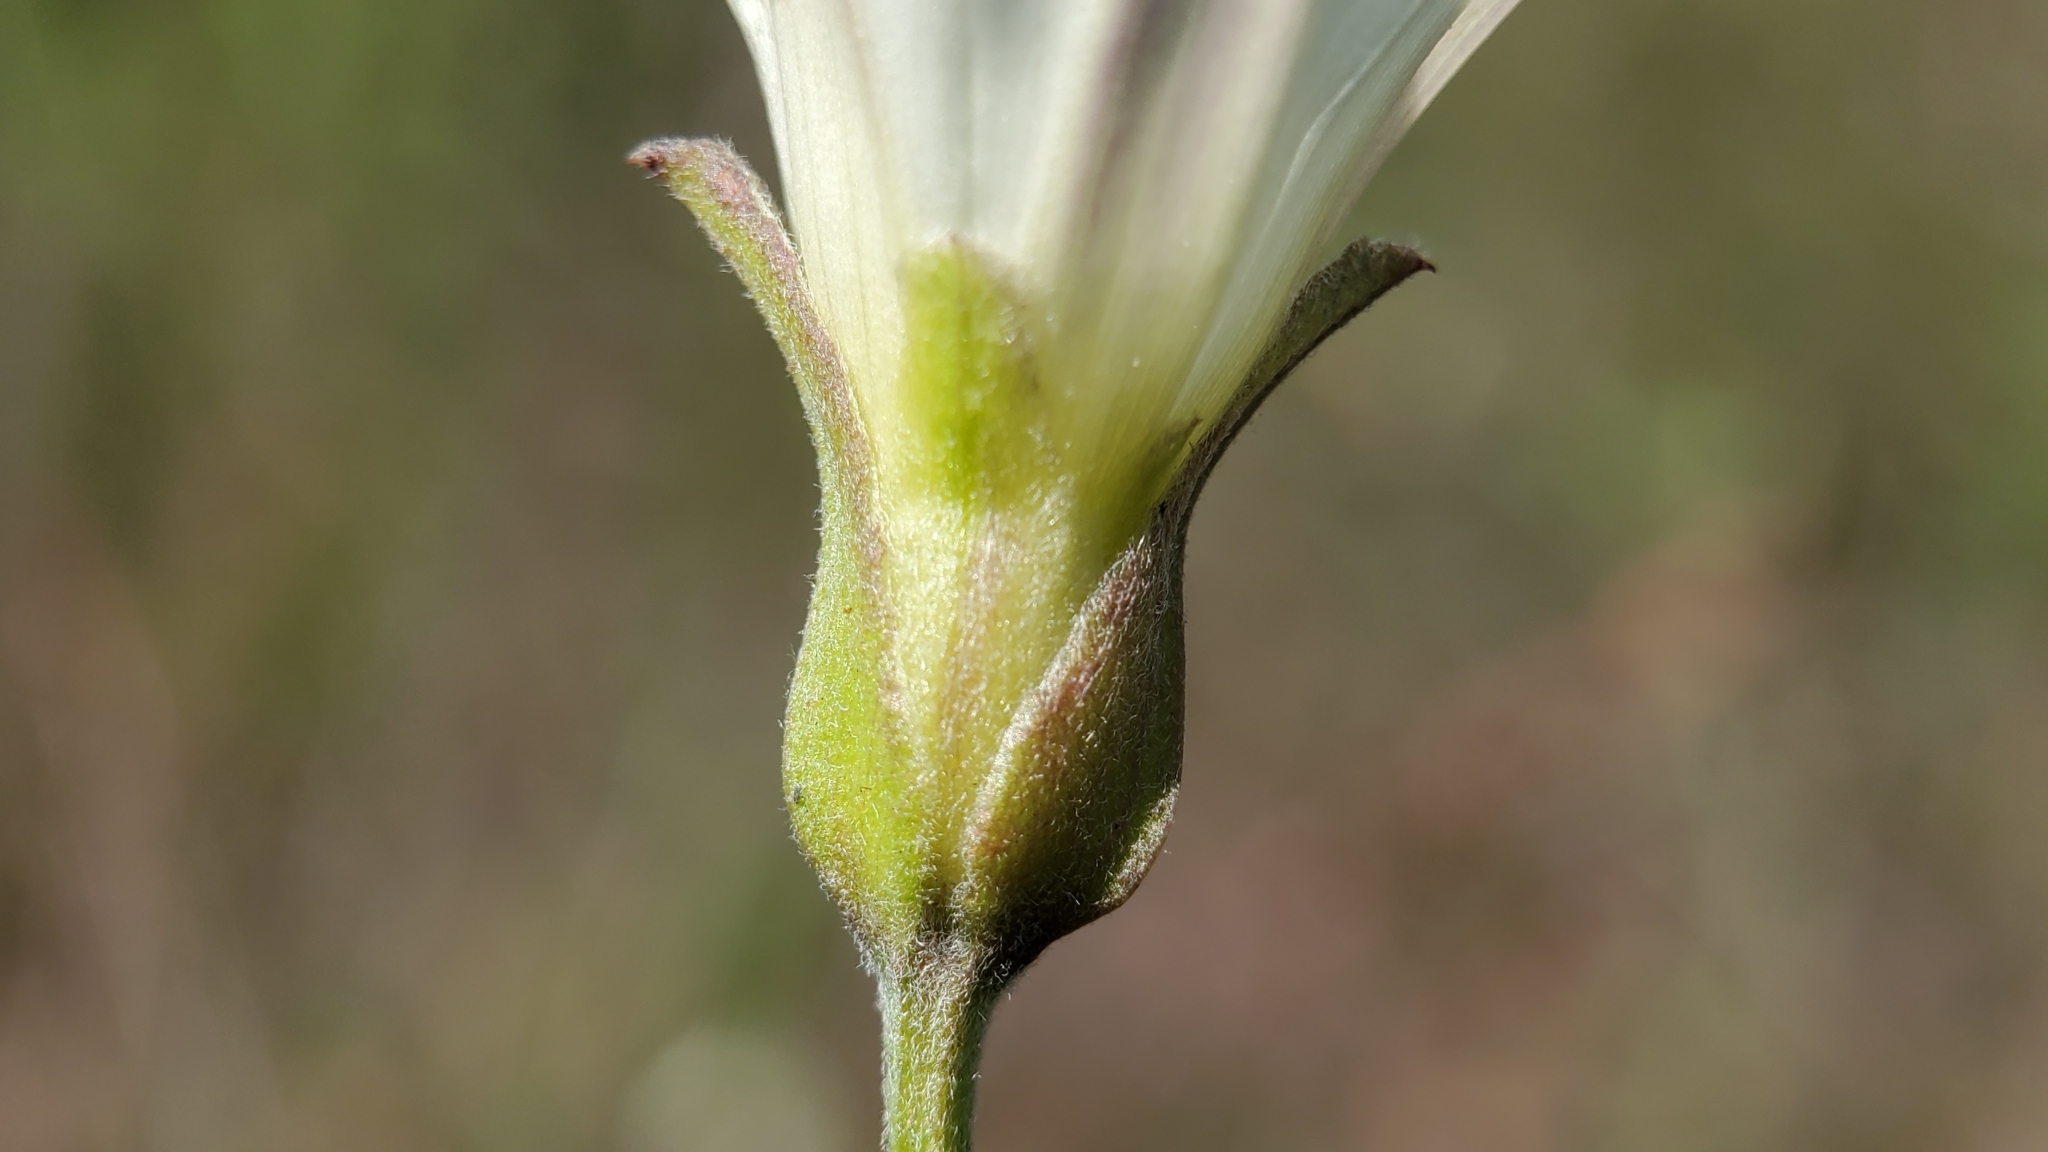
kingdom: Plantae
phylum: Tracheophyta
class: Magnoliopsida
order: Solanales
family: Convolvulaceae
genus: Calystegia
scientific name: Calystegia macrostegia
